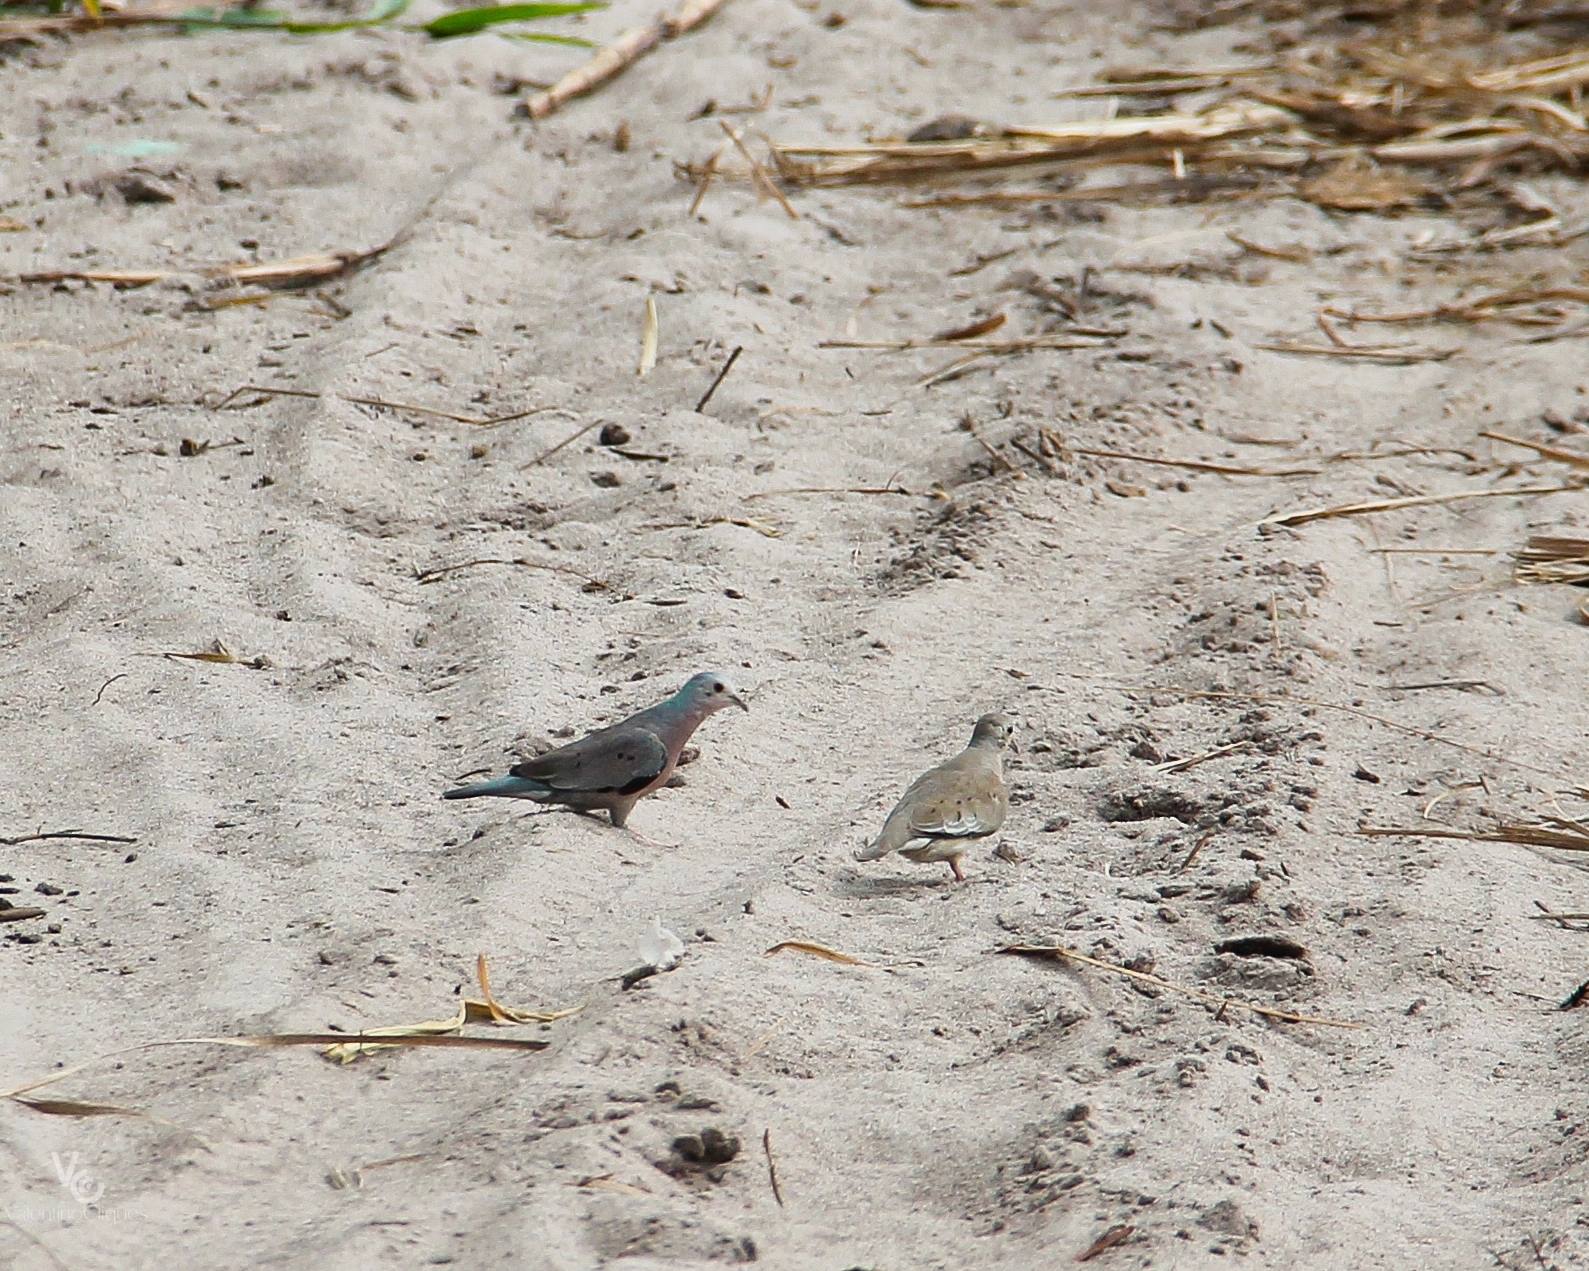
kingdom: Animalia
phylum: Chordata
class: Aves
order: Columbiformes
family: Columbidae
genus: Columbina
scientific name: Columbina minuta
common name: Plain-breasted ground dove
